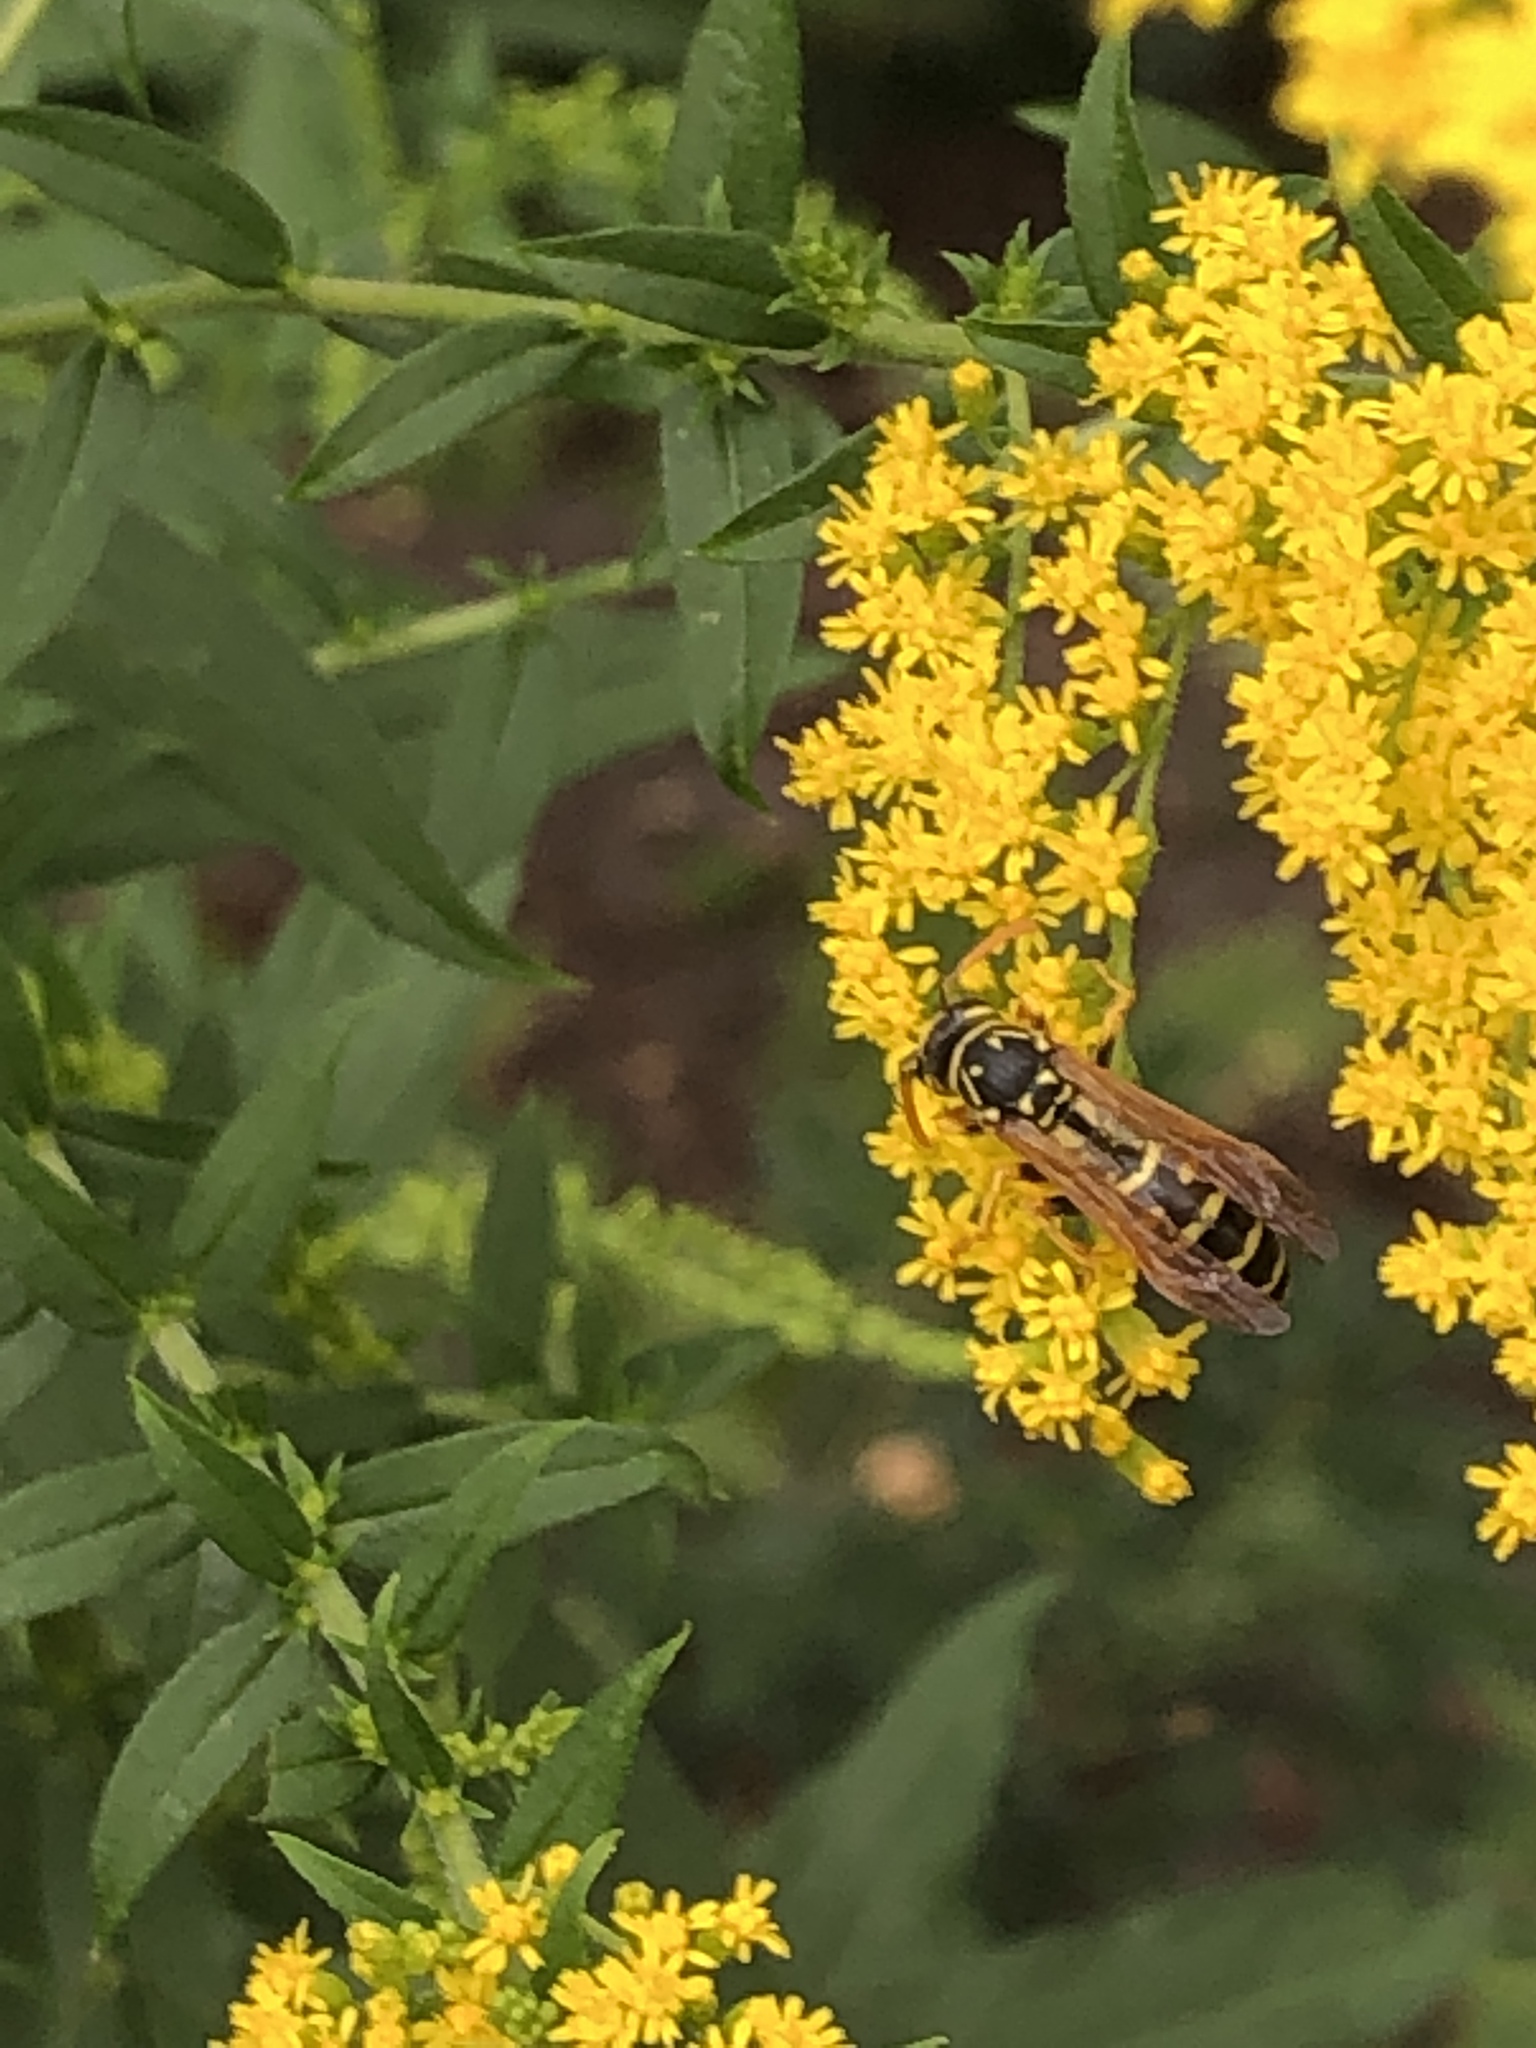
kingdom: Animalia
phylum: Arthropoda
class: Insecta
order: Hymenoptera
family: Eumenidae
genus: Polistes
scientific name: Polistes dominula
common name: Paper wasp
